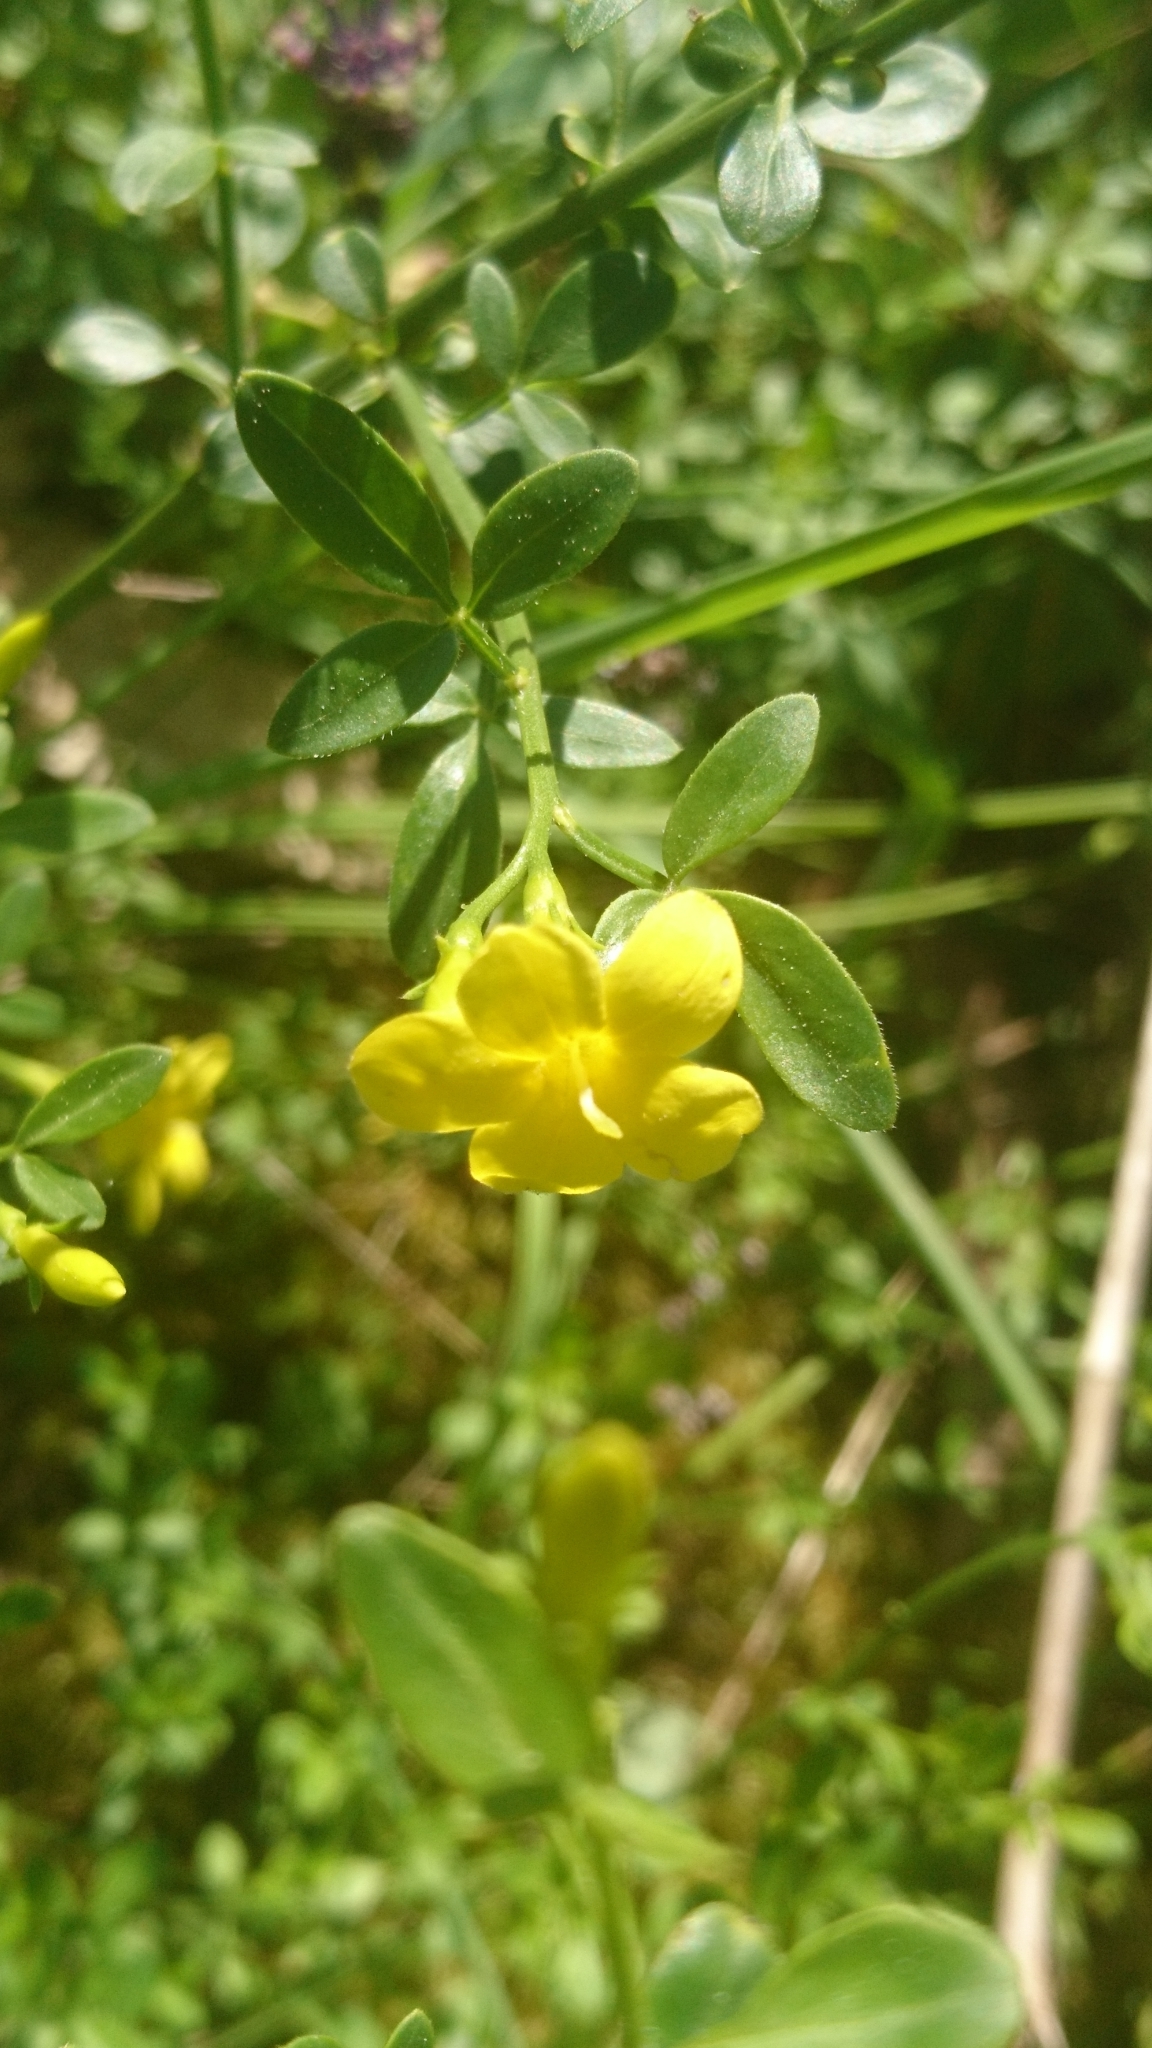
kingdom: Plantae
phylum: Tracheophyta
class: Magnoliopsida
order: Lamiales
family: Oleaceae
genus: Chrysojasminum
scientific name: Chrysojasminum fruticans
